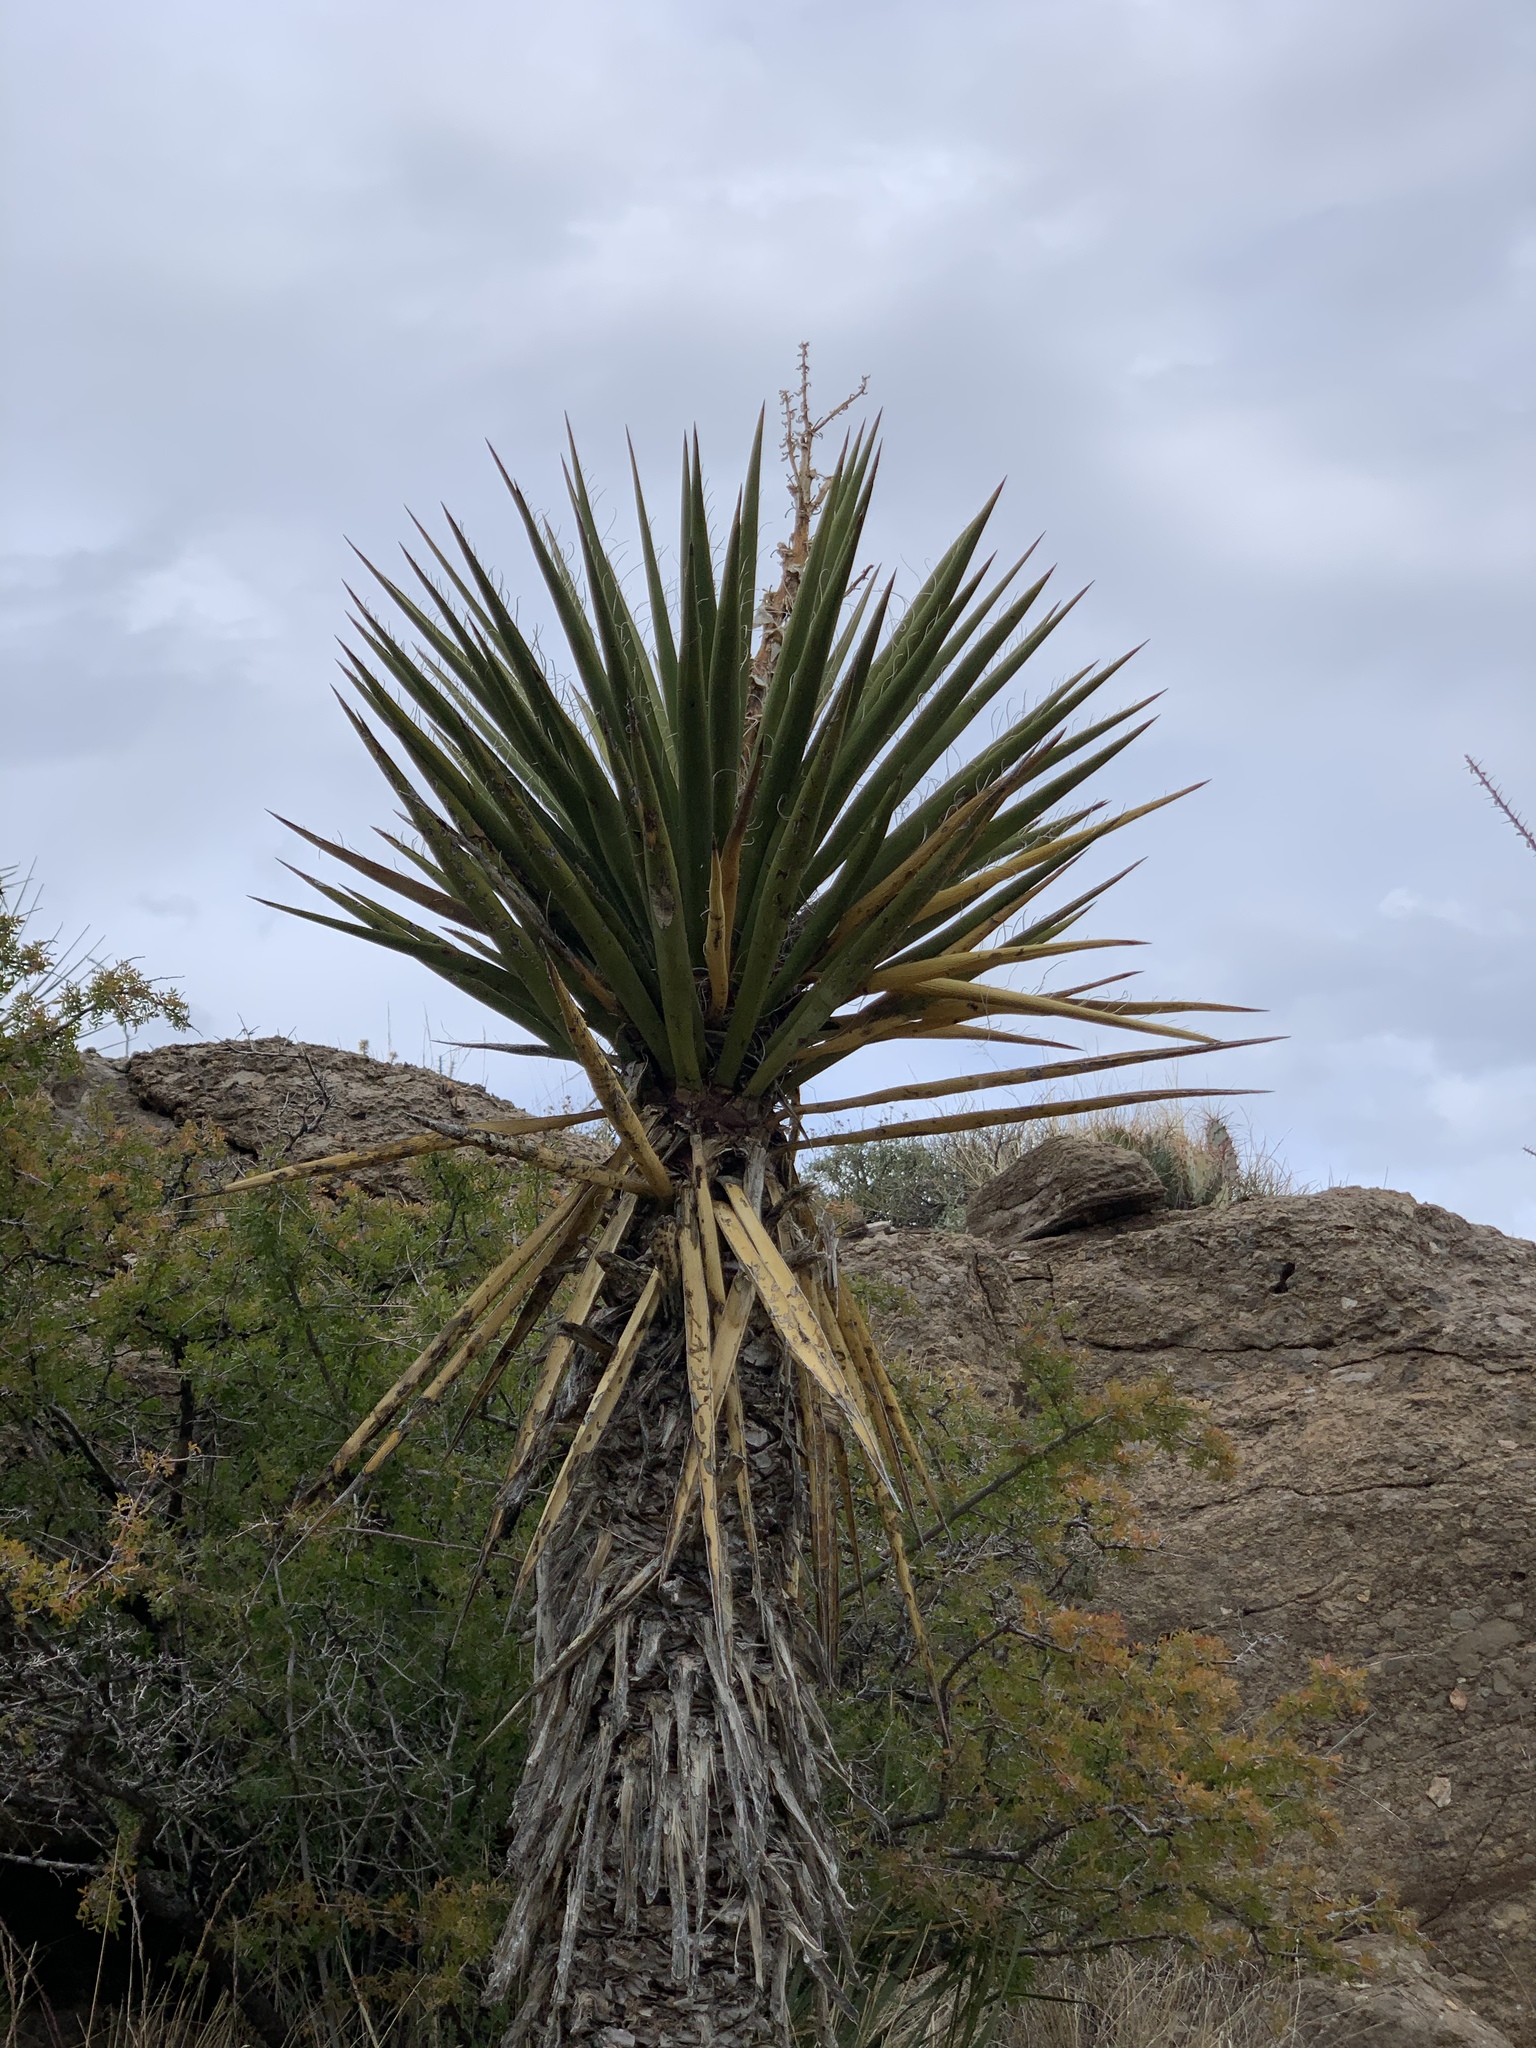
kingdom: Plantae
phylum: Tracheophyta
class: Liliopsida
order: Asparagales
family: Asparagaceae
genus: Yucca
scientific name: Yucca treculiana
